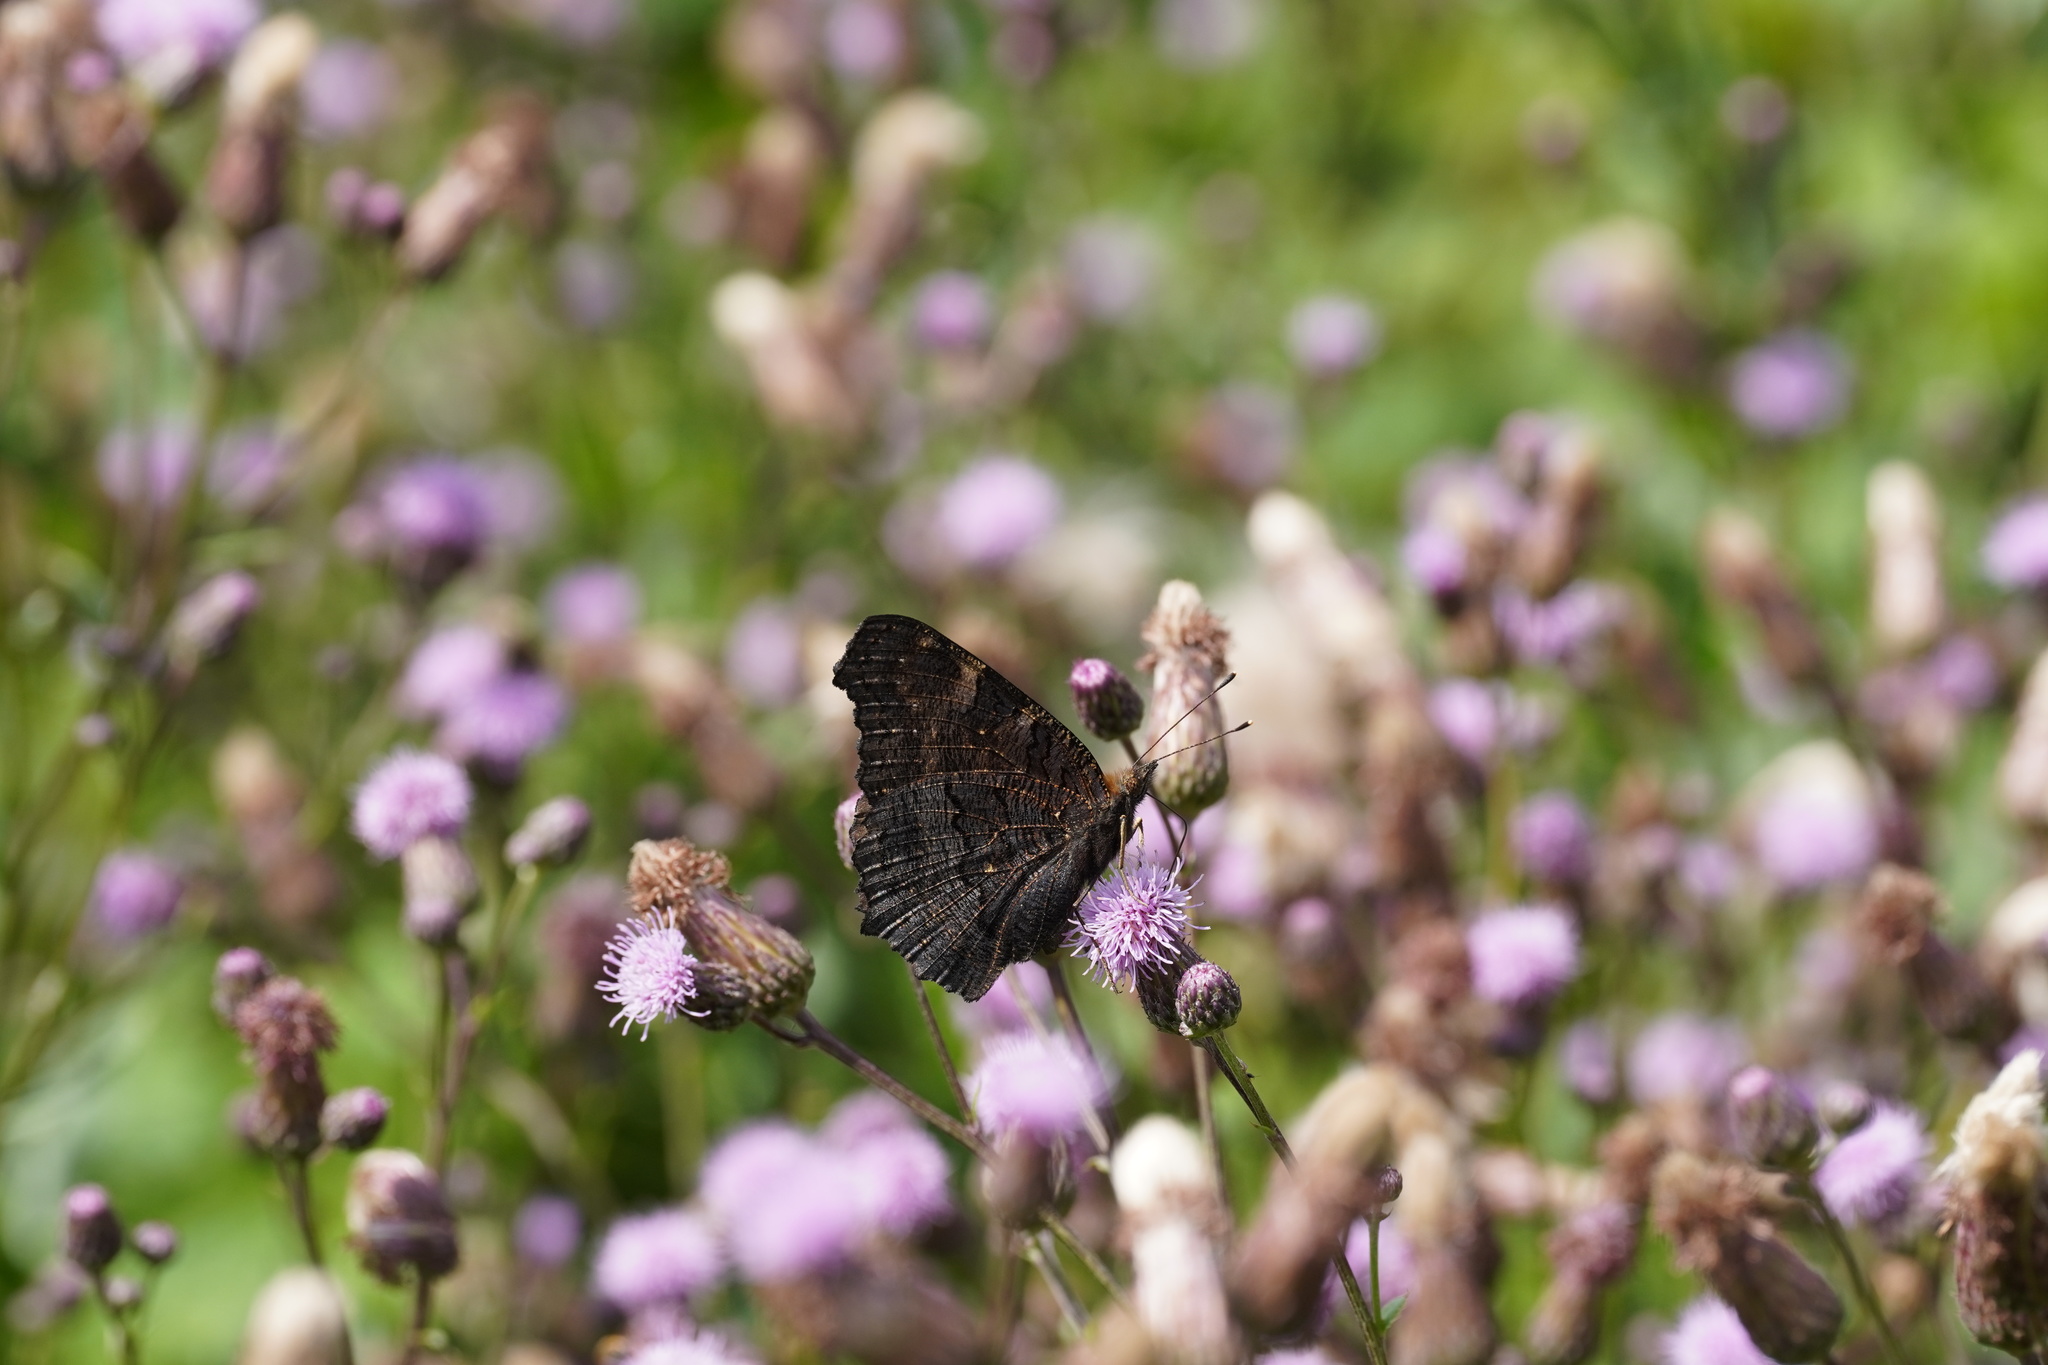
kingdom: Animalia
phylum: Arthropoda
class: Insecta
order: Lepidoptera
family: Nymphalidae
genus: Aglais
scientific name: Aglais io
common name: Peacock
